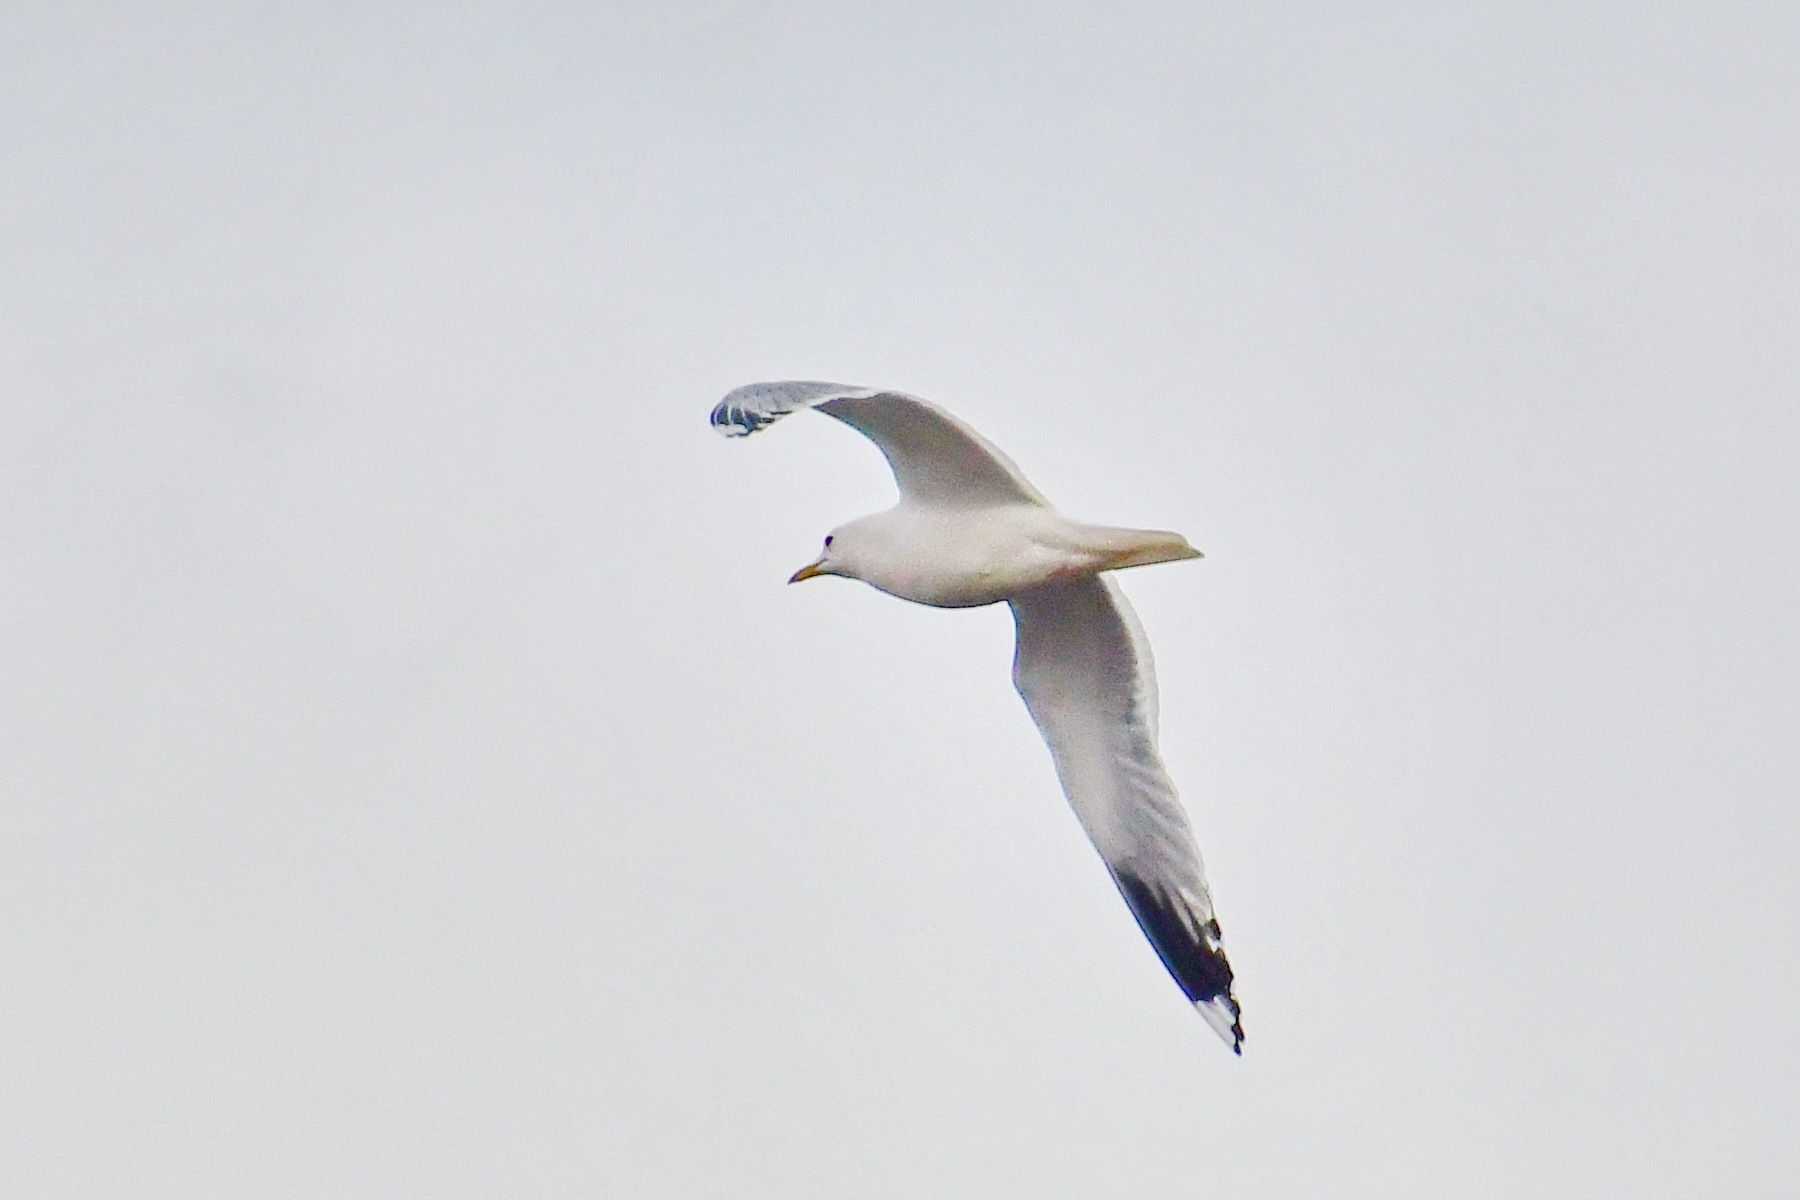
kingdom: Animalia
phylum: Chordata
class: Aves
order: Charadriiformes
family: Laridae
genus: Larus
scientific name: Larus canus
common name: Mew gull
